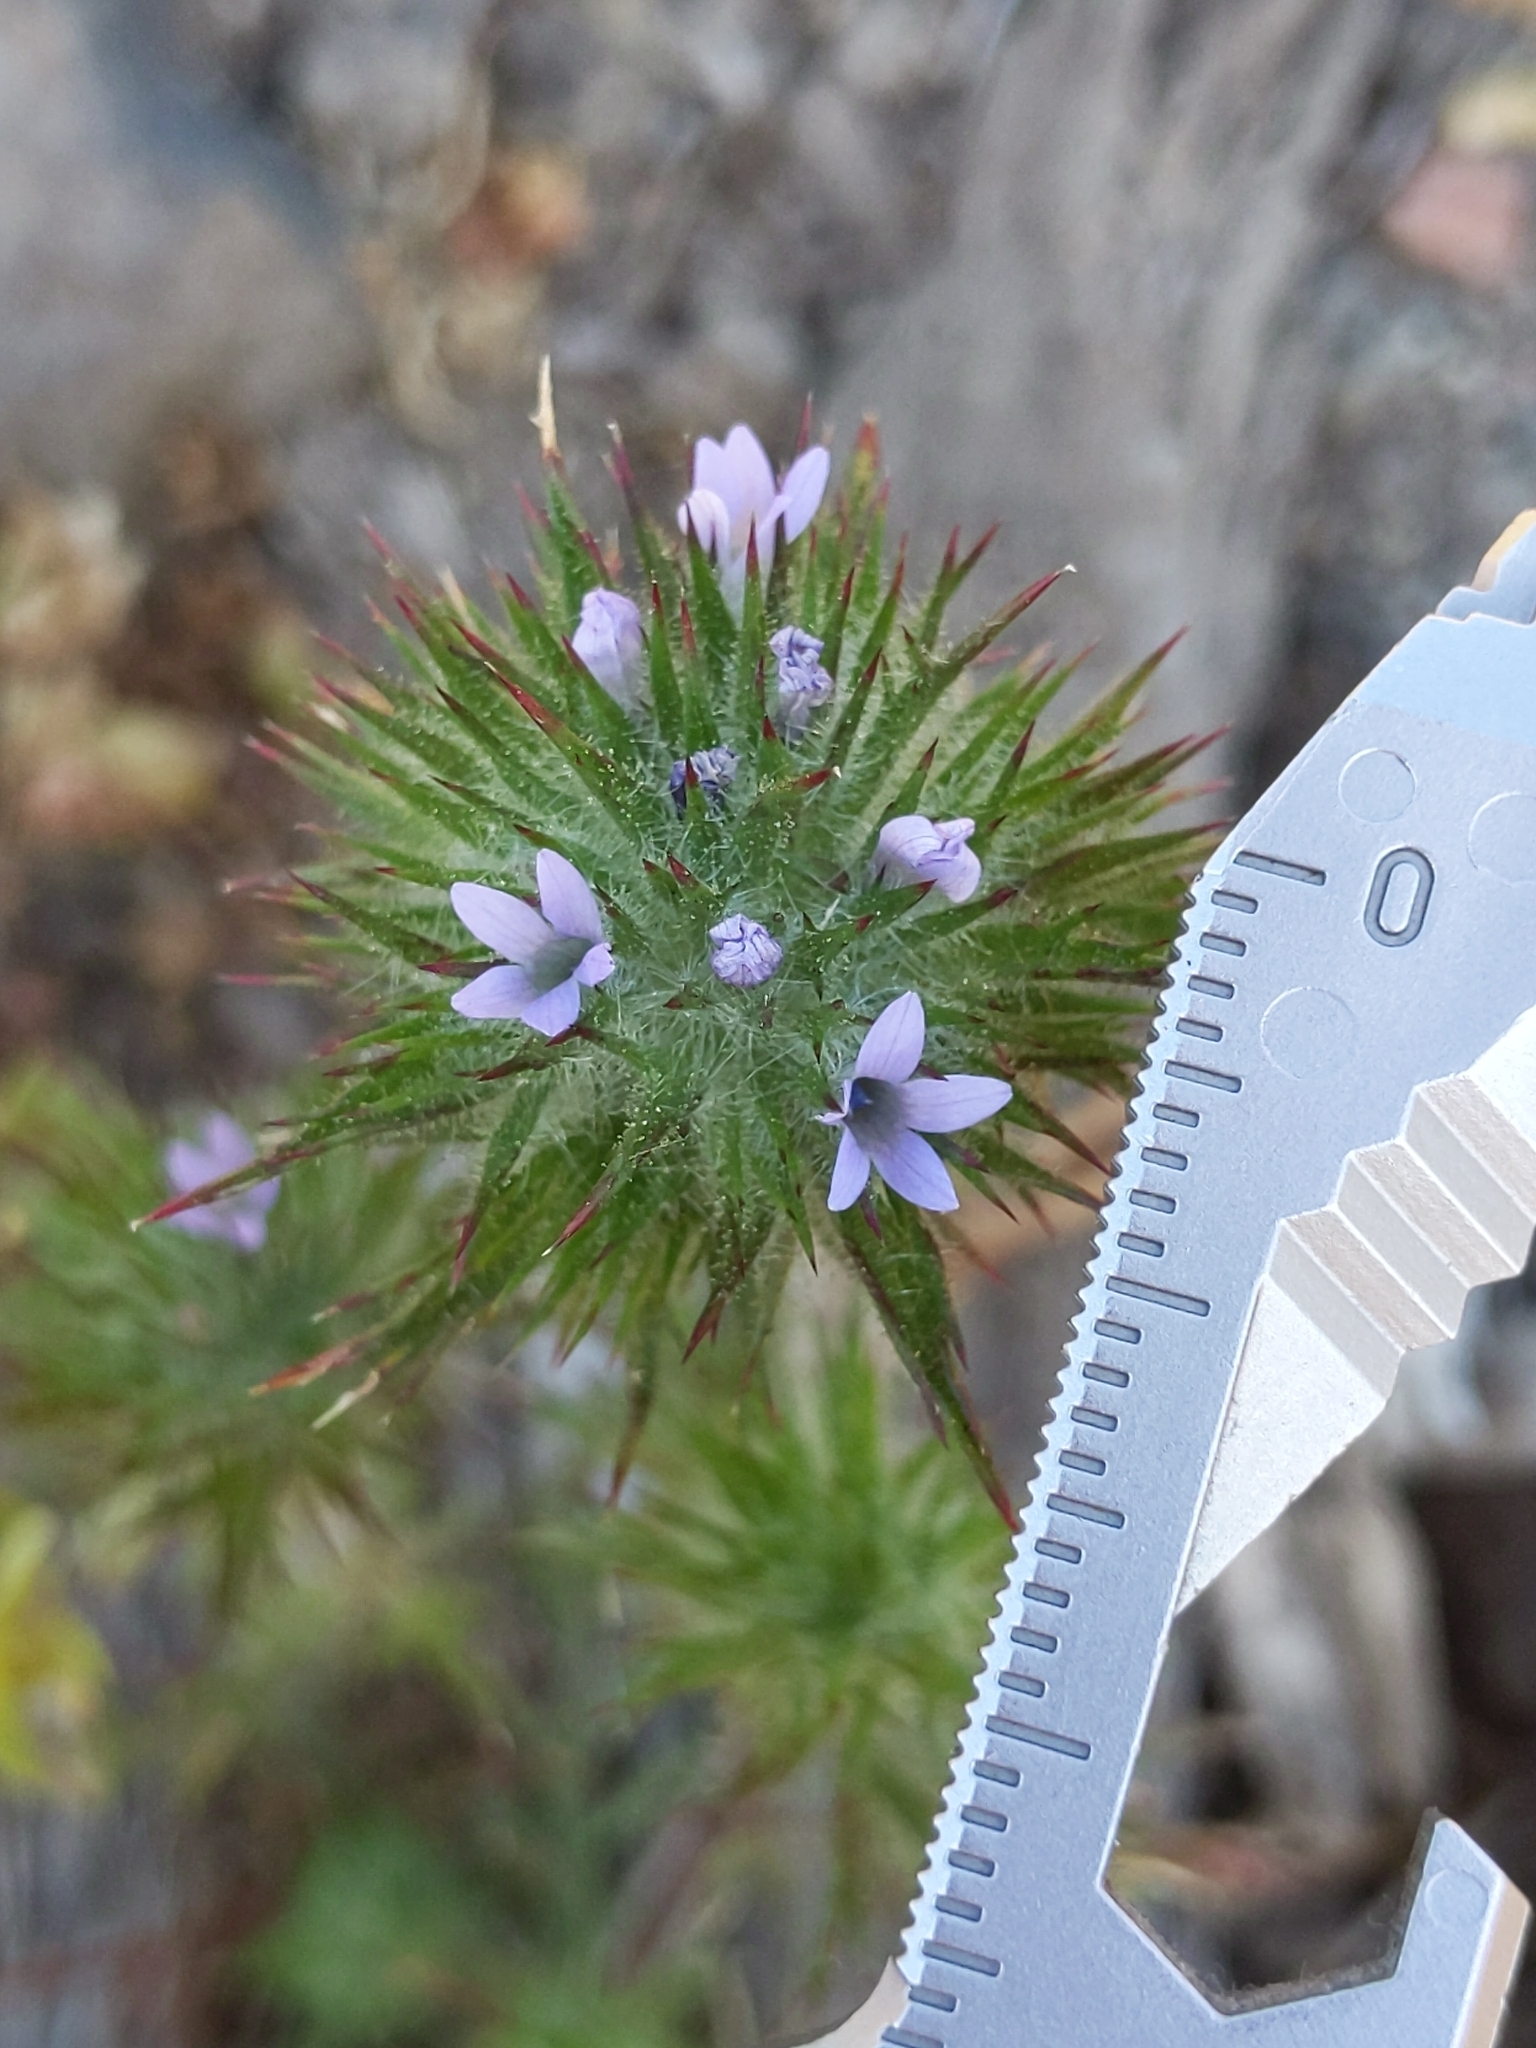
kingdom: Plantae
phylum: Tracheophyta
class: Magnoliopsida
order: Ericales
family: Polemoniaceae
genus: Navarretia
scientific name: Navarretia squarrosa
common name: Skunkweed
